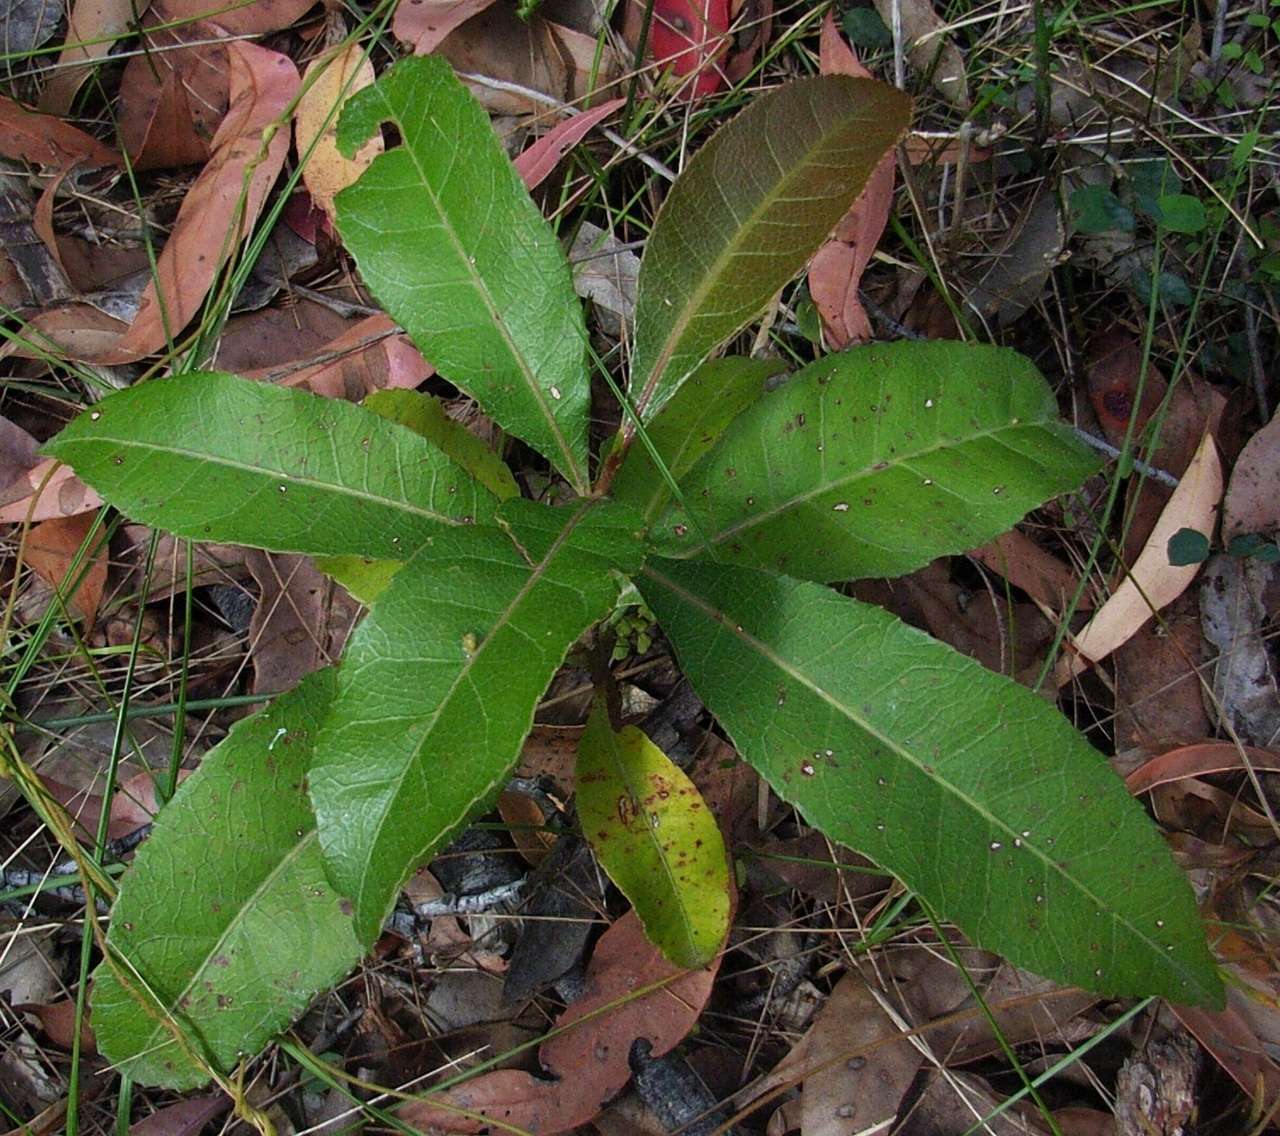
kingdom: Plantae
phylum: Tracheophyta
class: Magnoliopsida
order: Oxalidales
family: Elaeocarpaceae
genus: Elaeocarpus
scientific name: Elaeocarpus reticulatus
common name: Ash quandong
